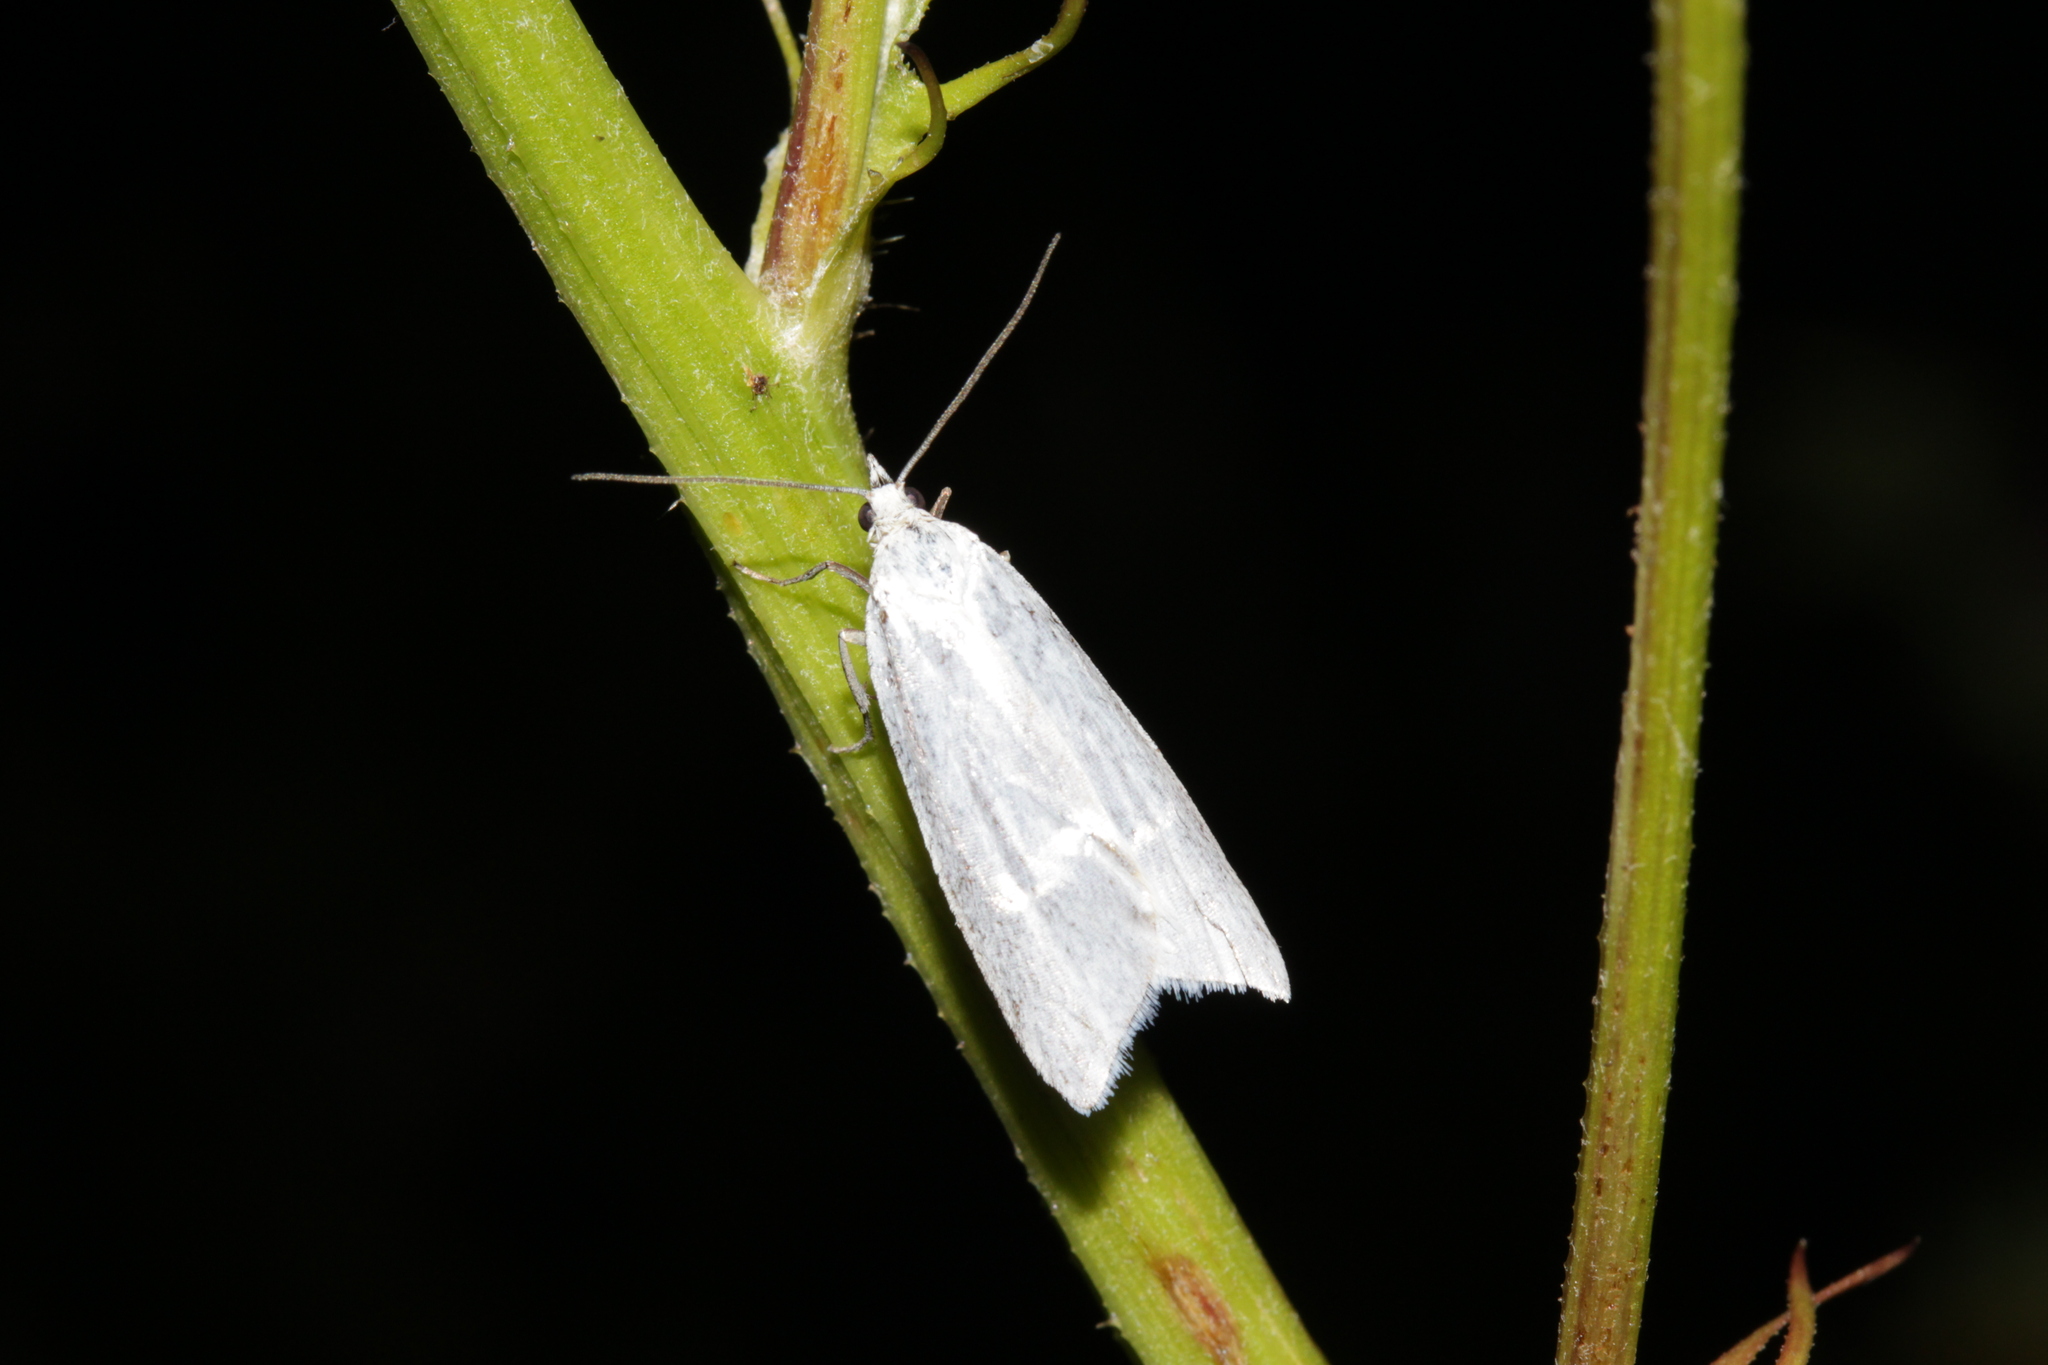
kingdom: Animalia
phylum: Arthropoda
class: Insecta
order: Lepidoptera
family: Tortricidae
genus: Eana
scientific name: Eana argentana
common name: Silver shade
